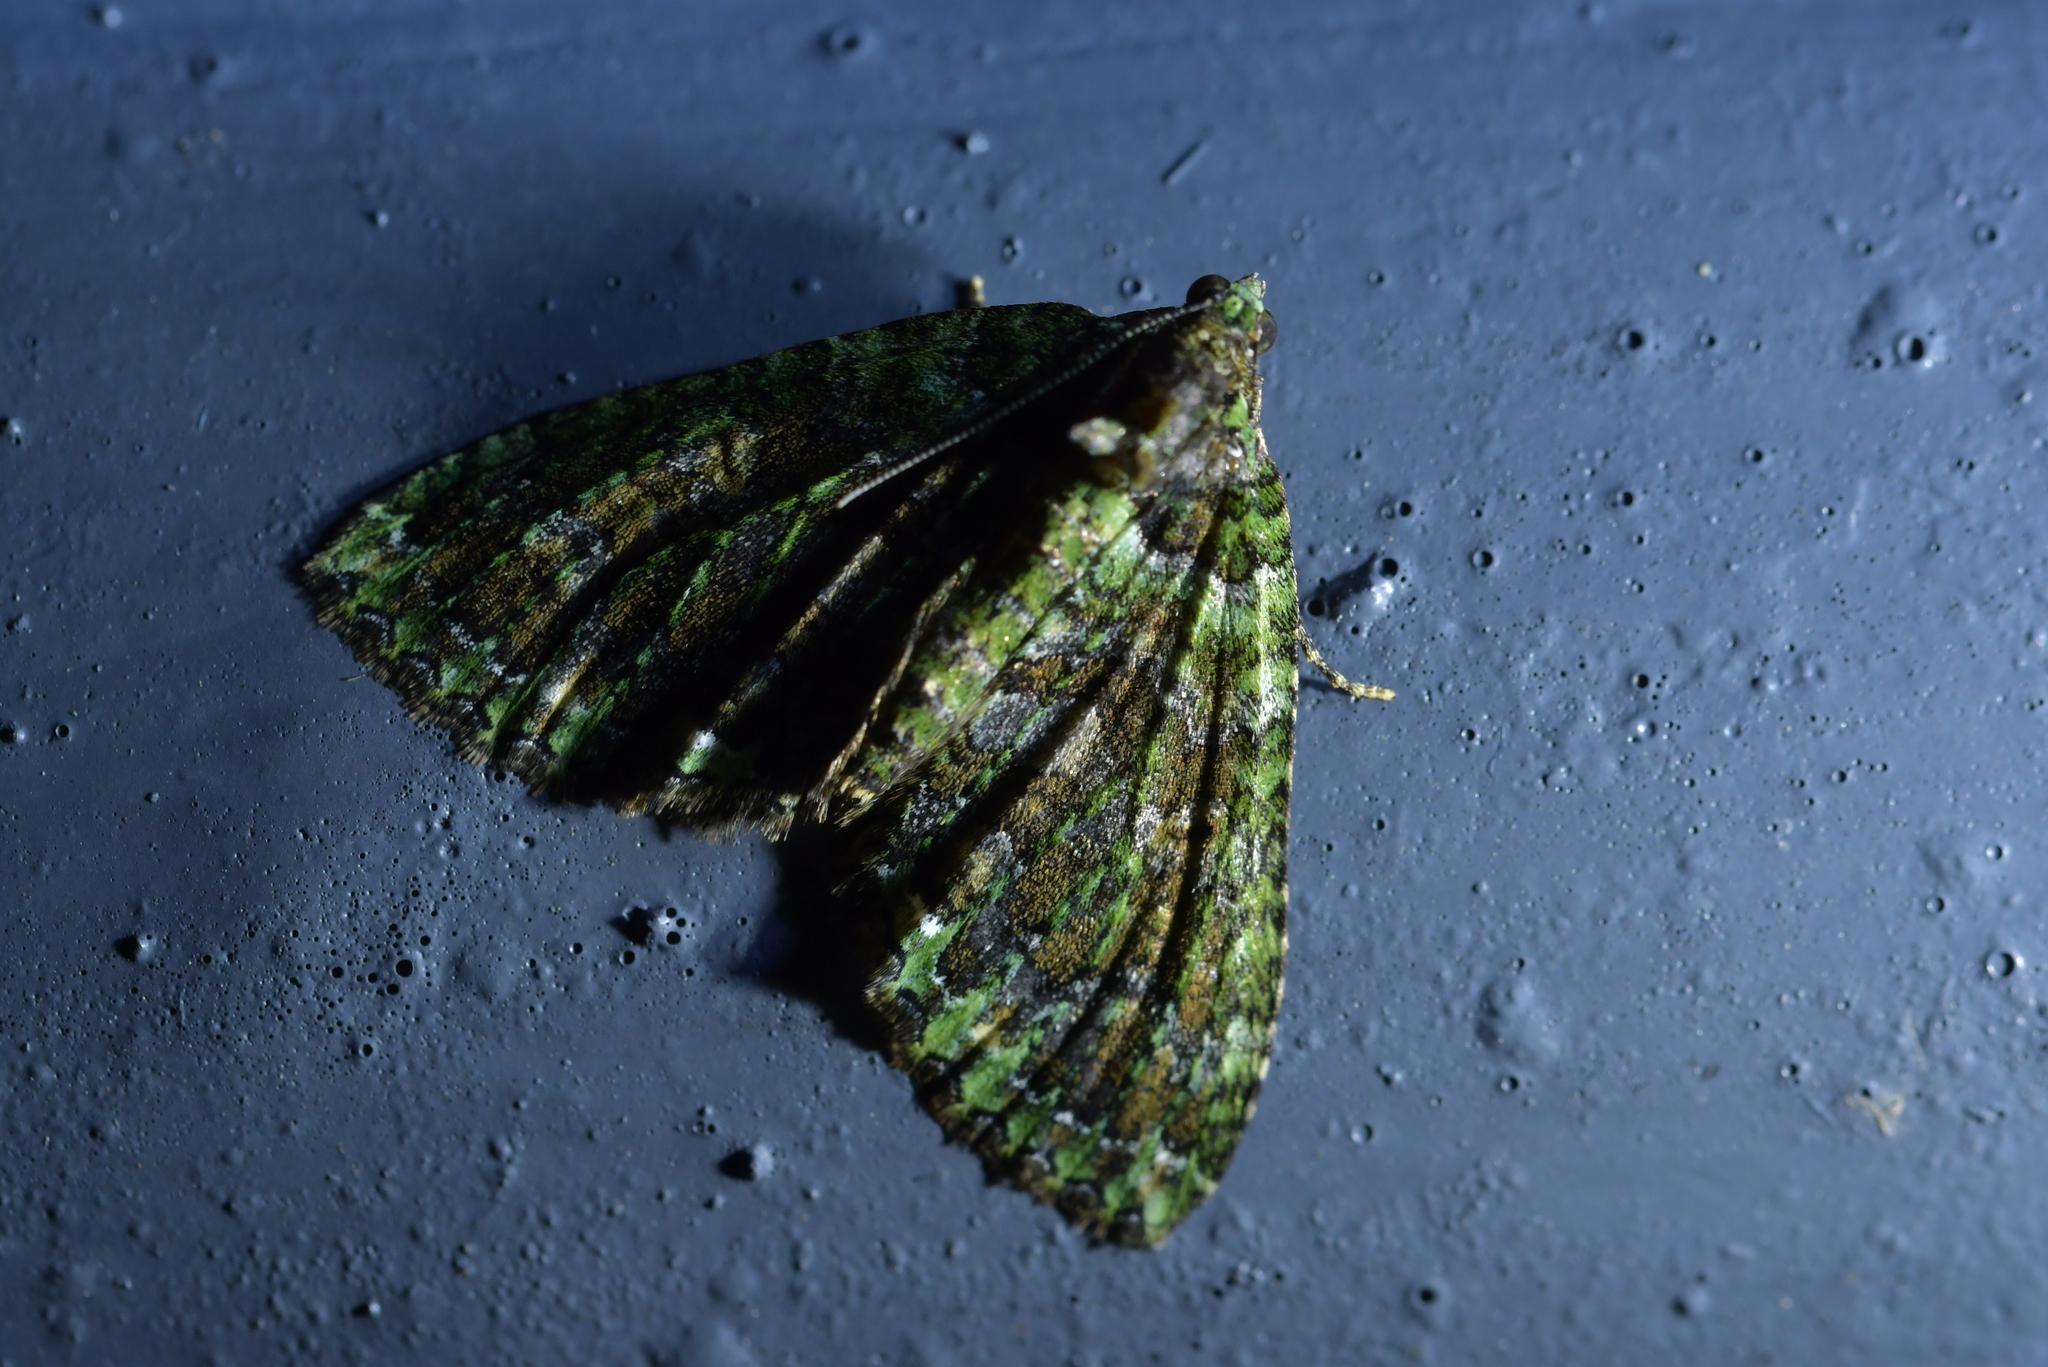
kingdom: Animalia
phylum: Arthropoda
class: Insecta
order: Lepidoptera
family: Geometridae
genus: Austrocidaria
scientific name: Austrocidaria similata
